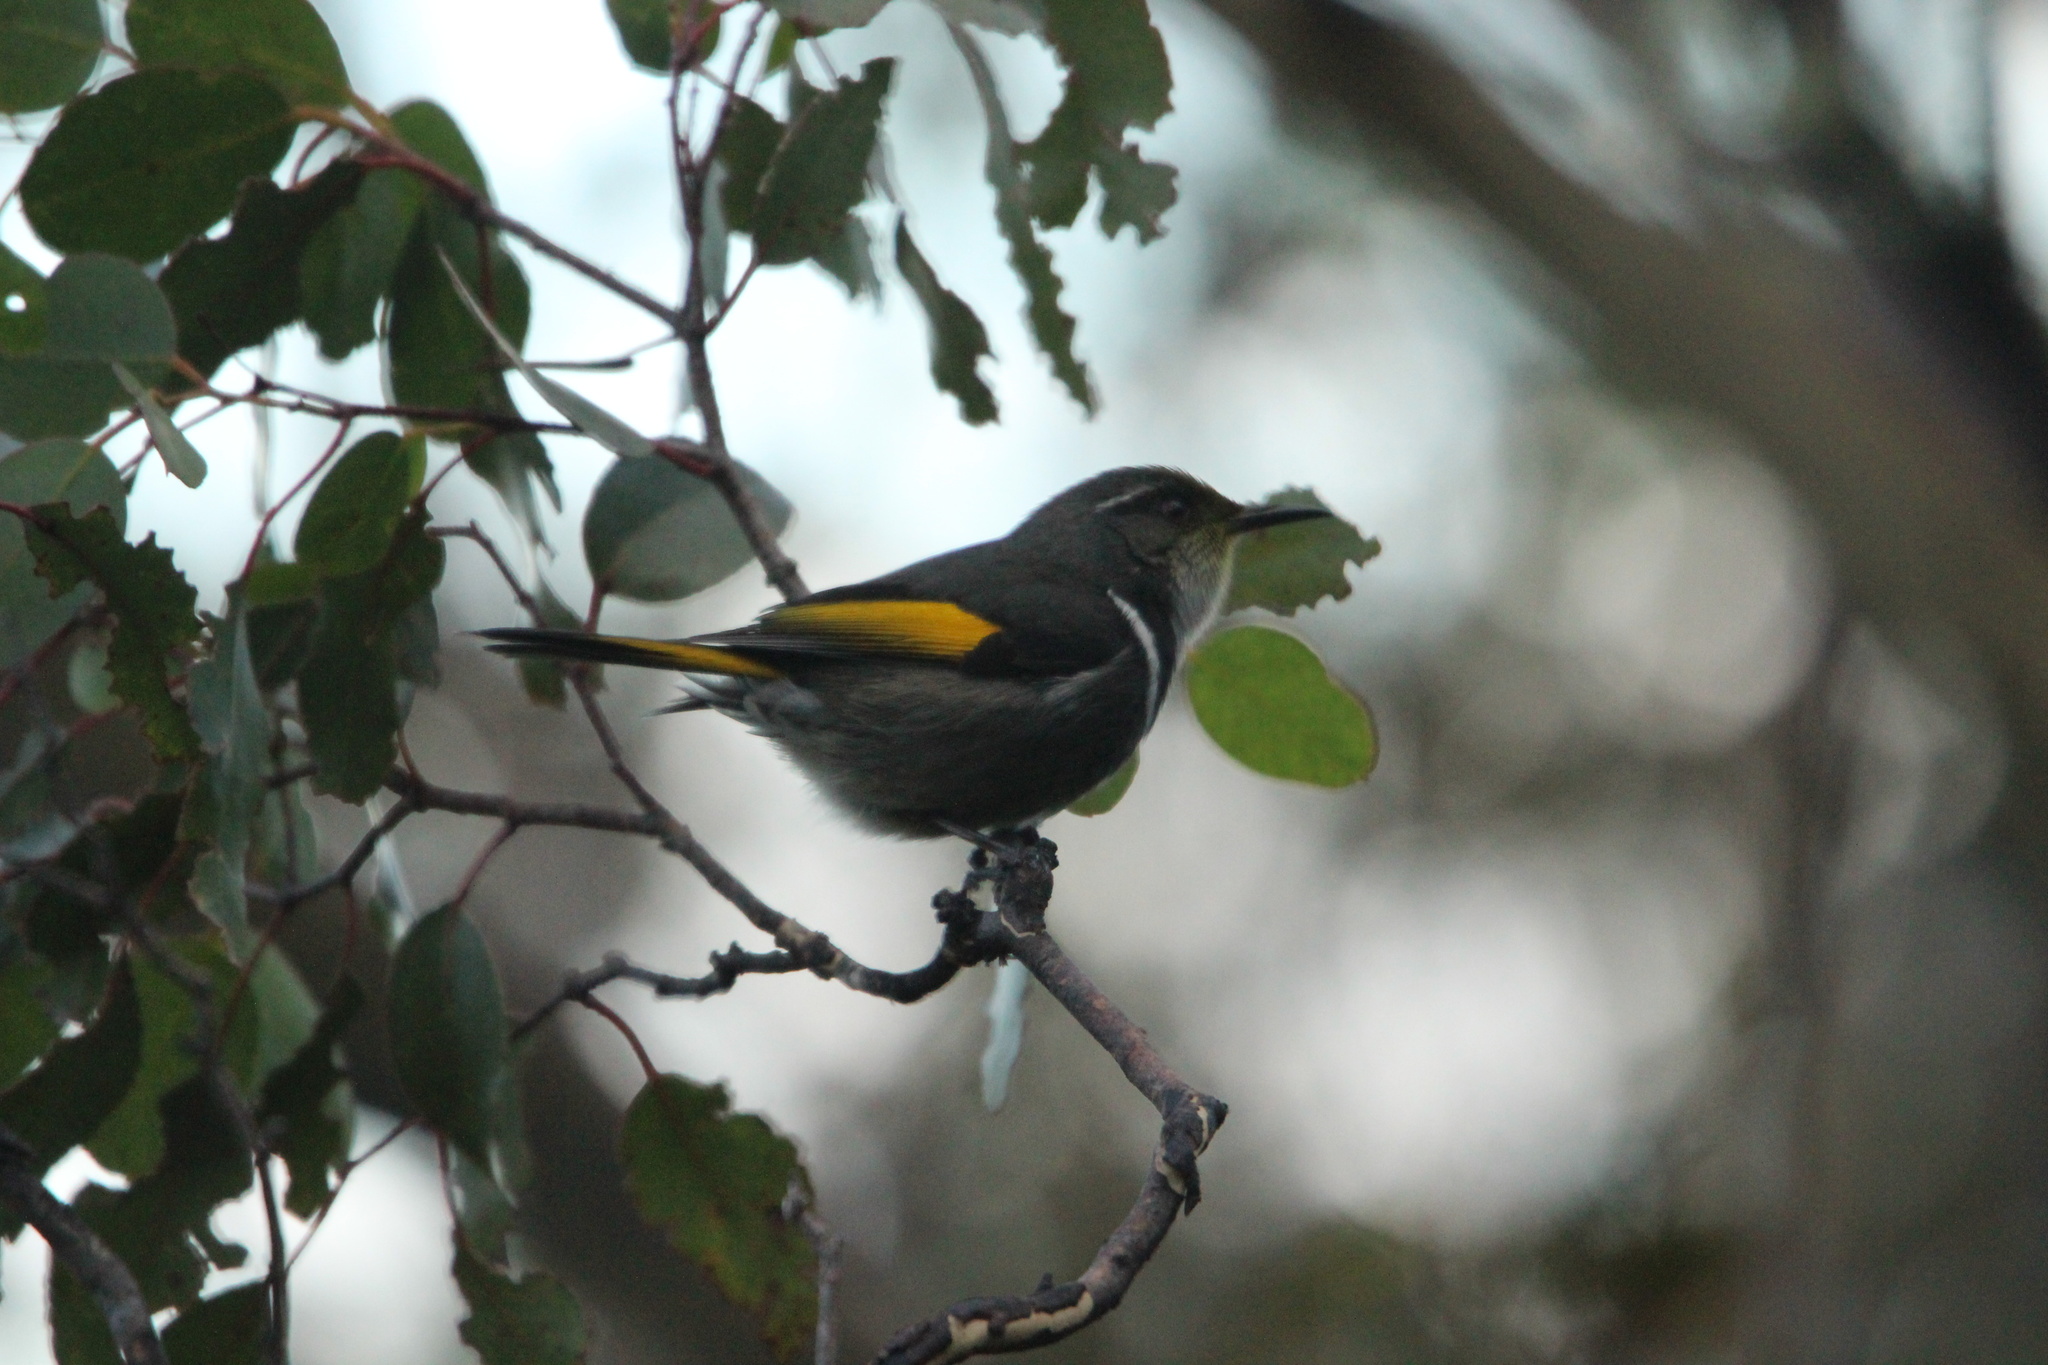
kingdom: Animalia
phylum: Chordata
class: Aves
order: Passeriformes
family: Meliphagidae
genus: Phylidonyris
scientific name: Phylidonyris pyrrhopterus
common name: Crescent honeyeater
